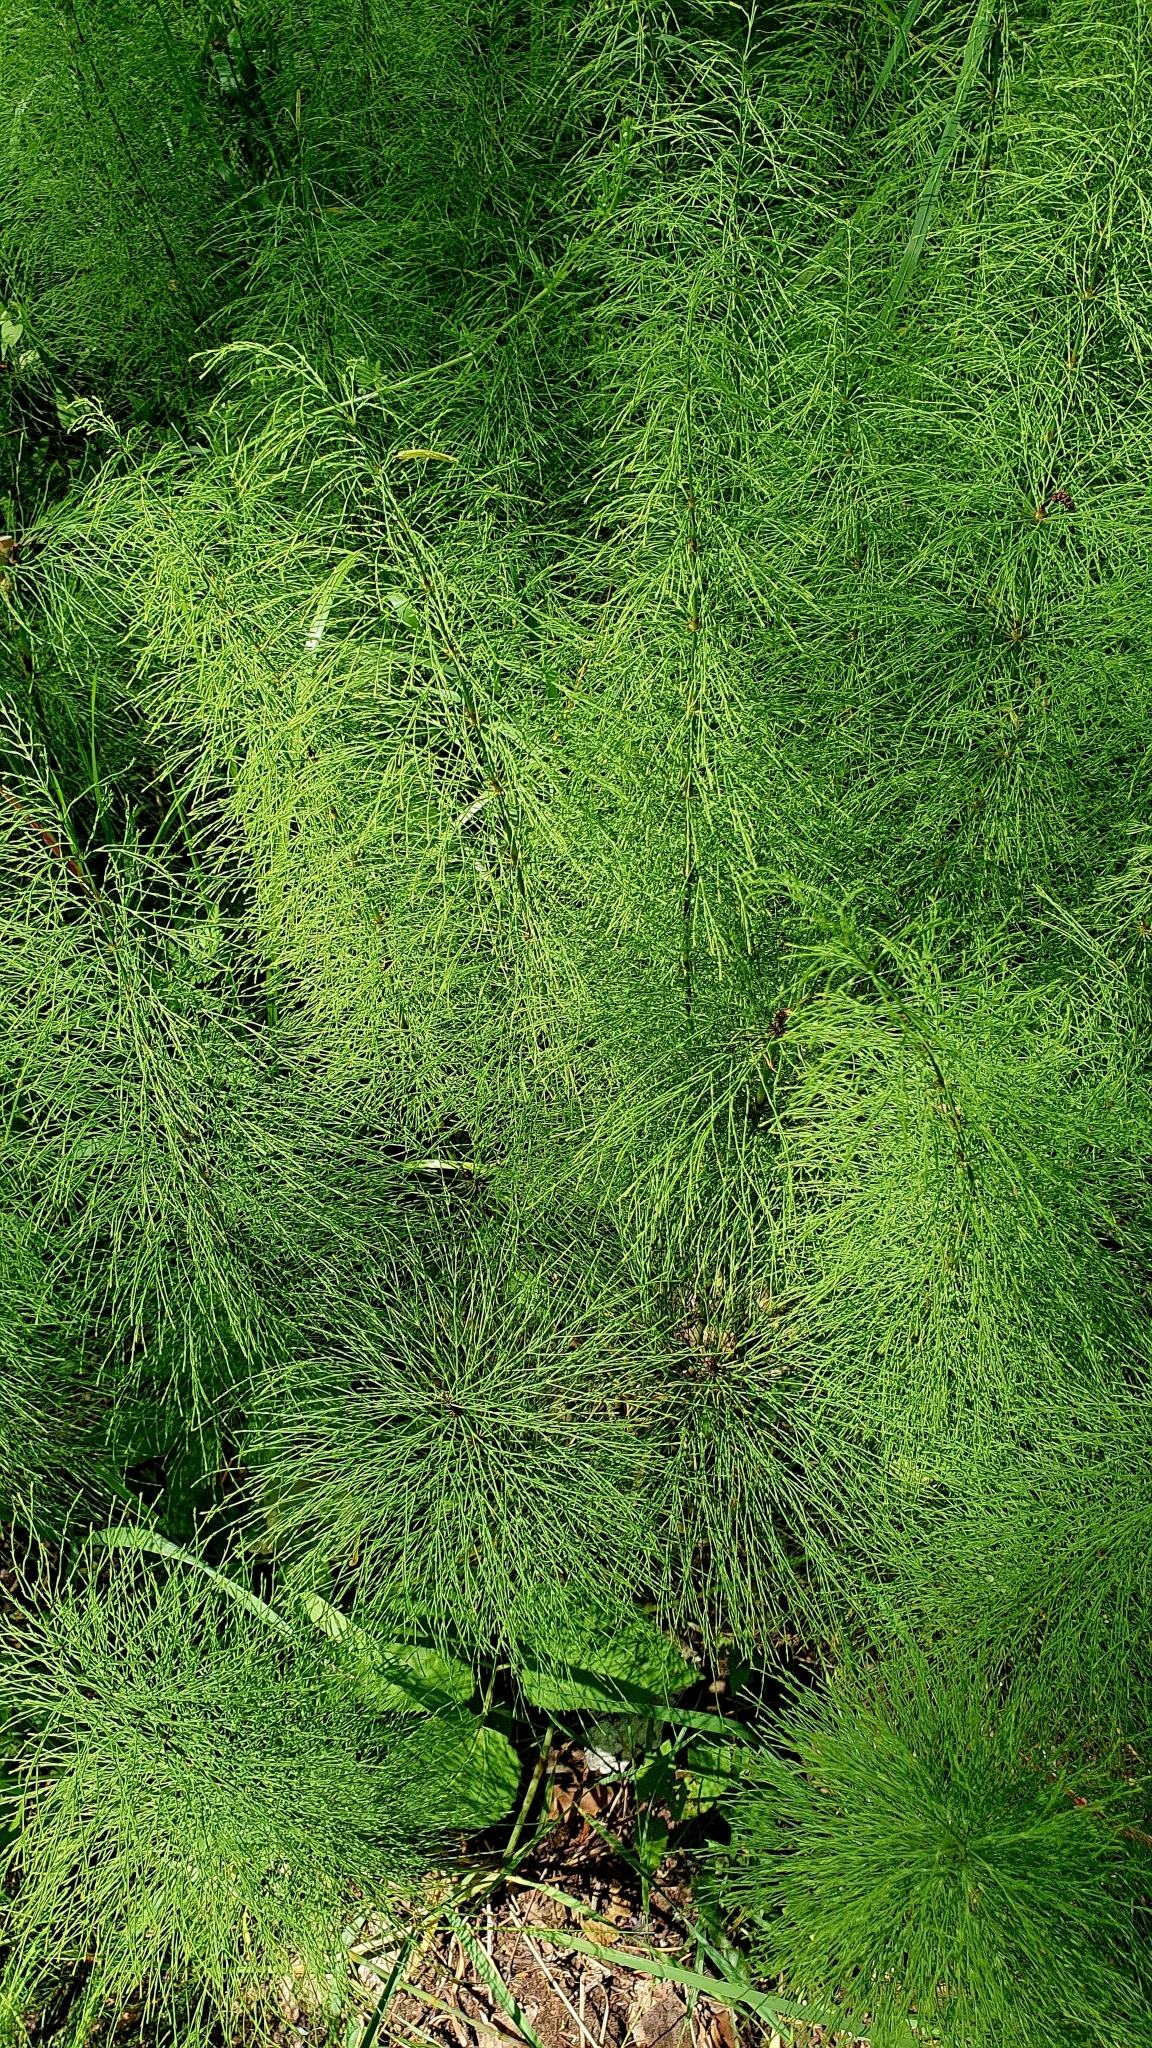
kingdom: Plantae
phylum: Tracheophyta
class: Polypodiopsida
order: Equisetales
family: Equisetaceae
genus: Equisetum
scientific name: Equisetum sylvaticum
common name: Wood horsetail
